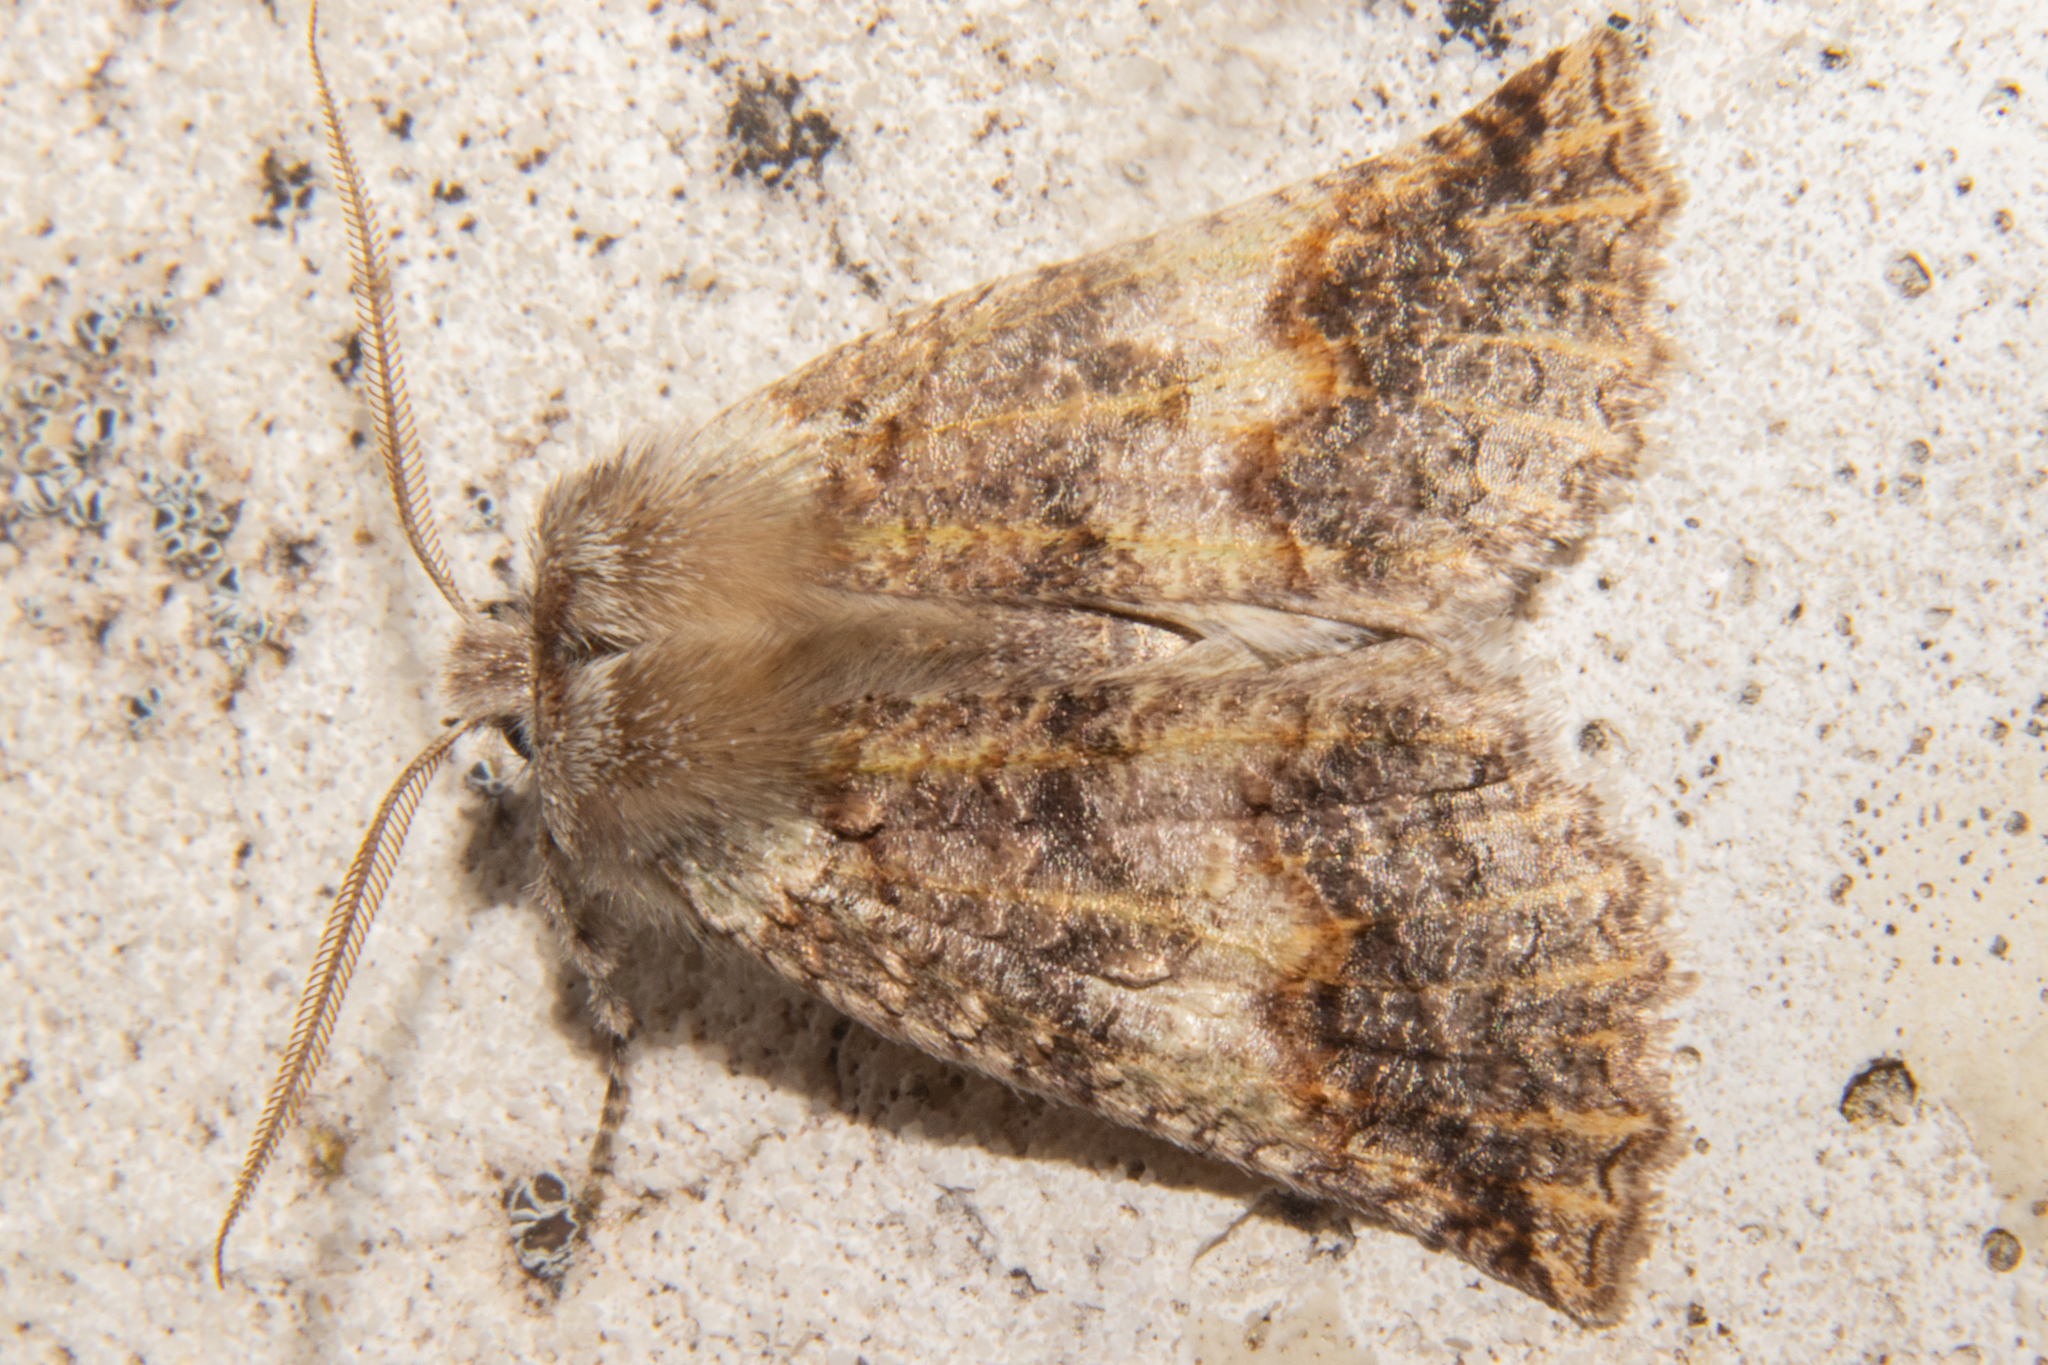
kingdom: Animalia
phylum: Arthropoda
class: Insecta
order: Lepidoptera
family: Geometridae
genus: Declana
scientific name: Declana floccosa
